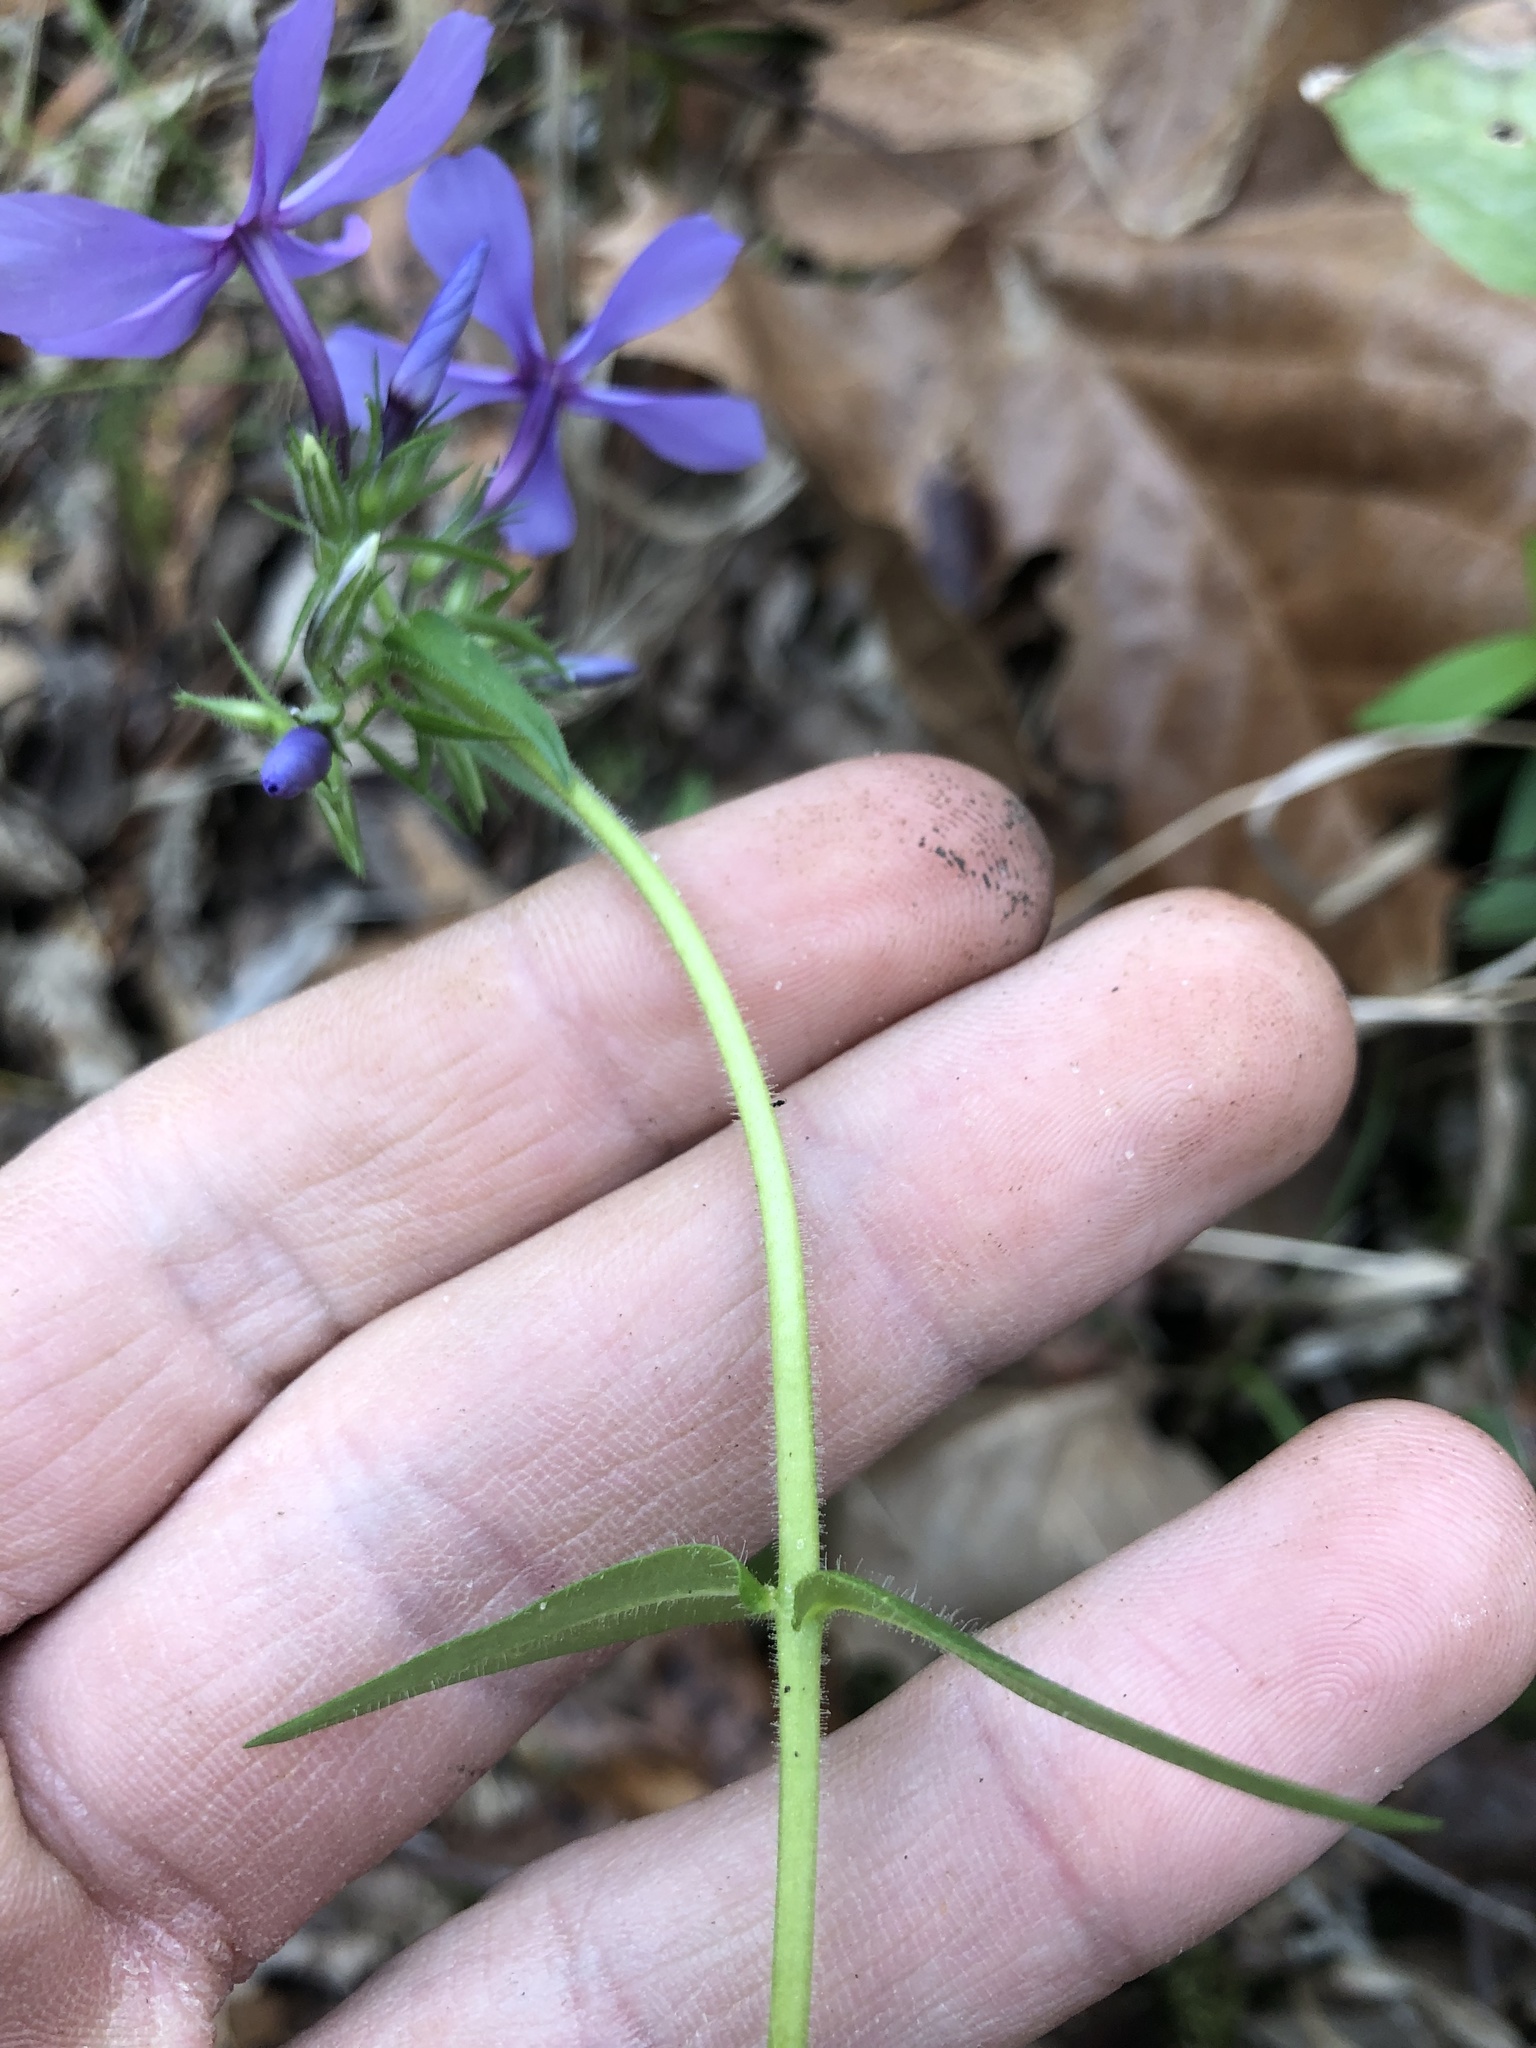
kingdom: Plantae
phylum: Tracheophyta
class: Magnoliopsida
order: Ericales
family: Polemoniaceae
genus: Phlox
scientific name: Phlox divaricata
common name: Blue phlox
